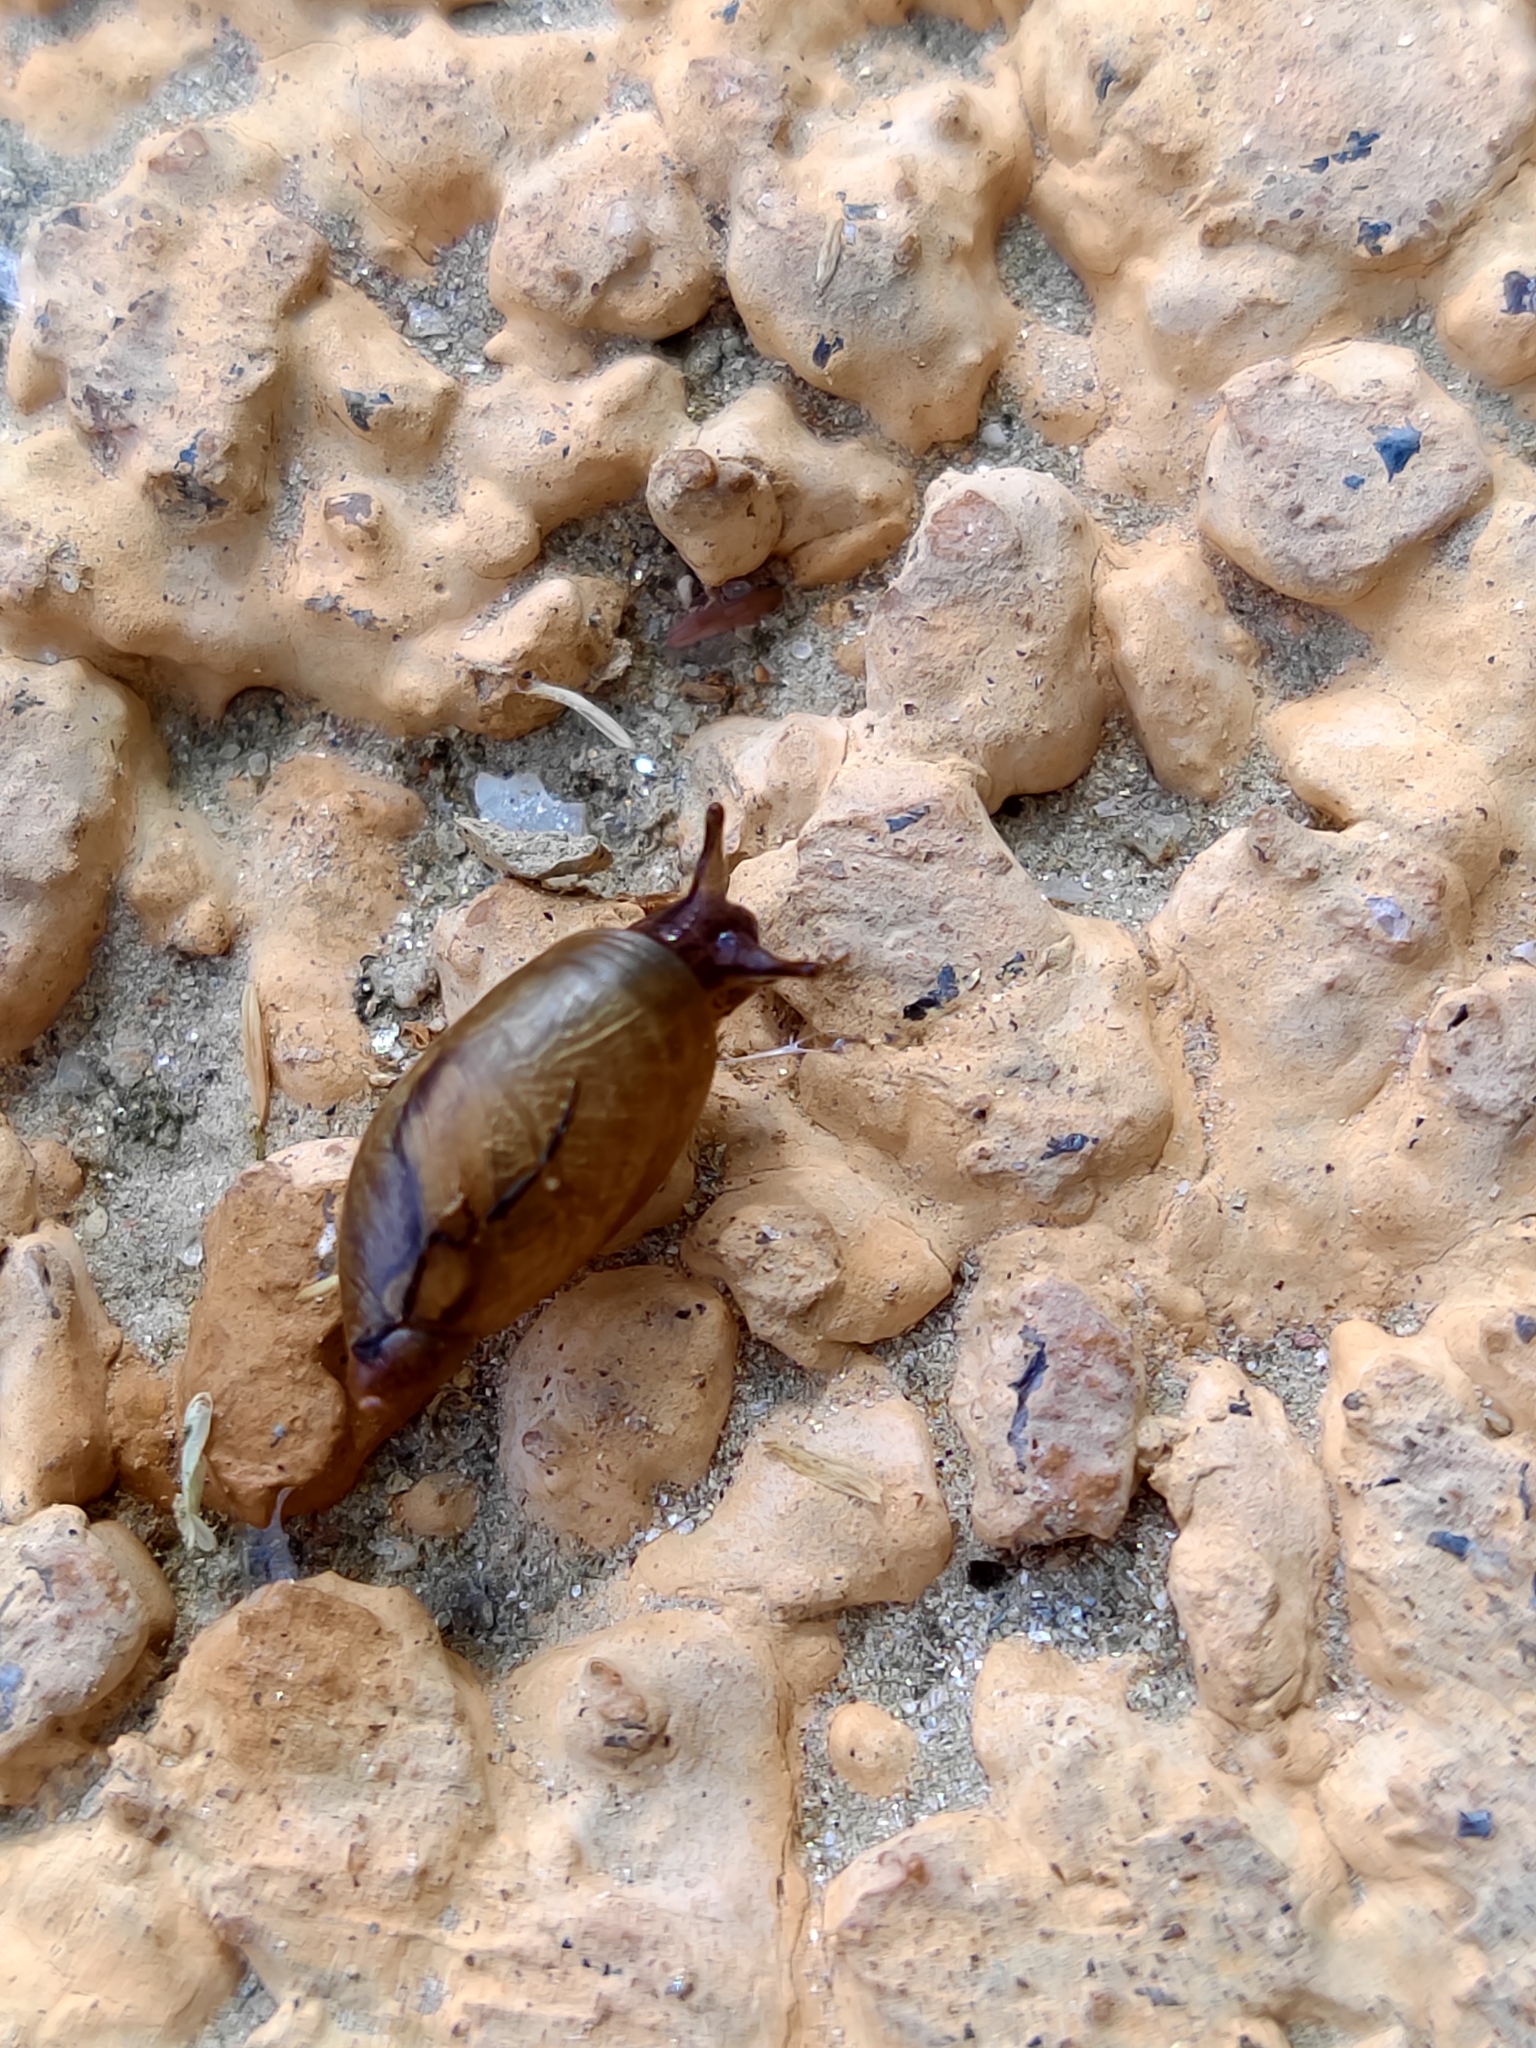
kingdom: Animalia
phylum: Mollusca
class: Gastropoda
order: Stylommatophora
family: Succineidae
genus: Oxyloma
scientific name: Oxyloma elegans
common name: Pfeiffer's amber snail
